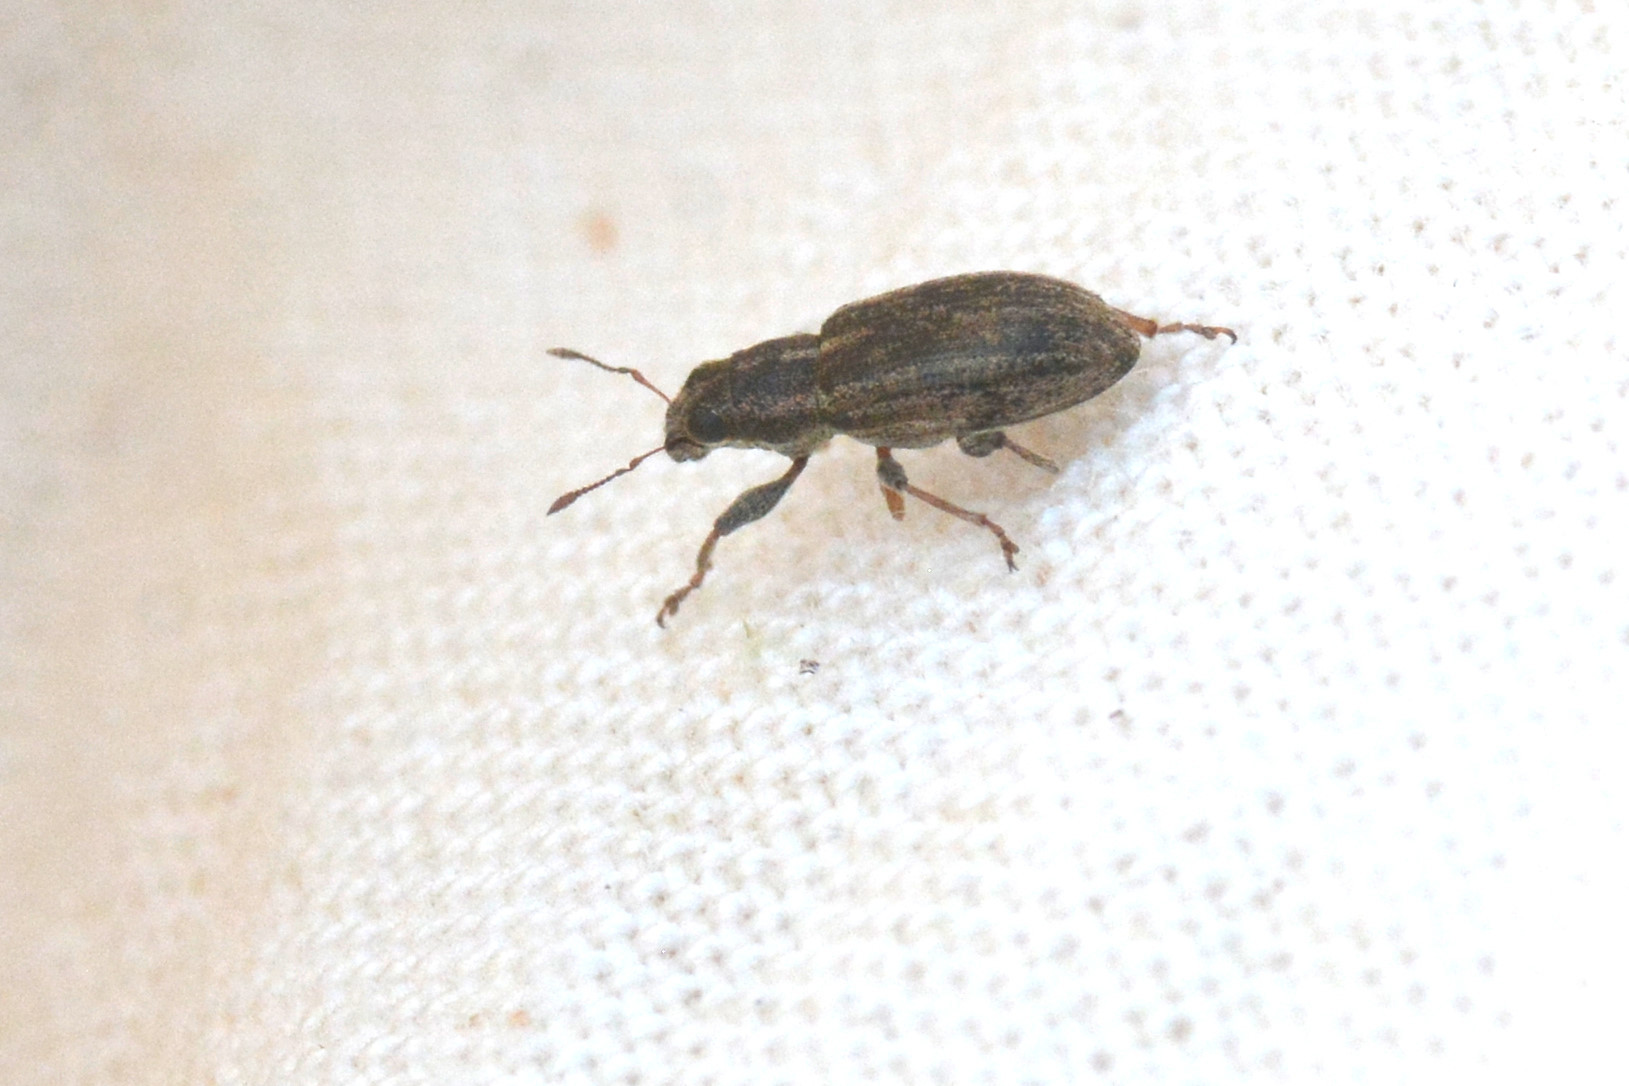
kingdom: Animalia
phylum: Arthropoda
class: Insecta
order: Coleoptera
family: Curculionidae
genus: Sitona
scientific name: Sitona lineatus
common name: Weevil
